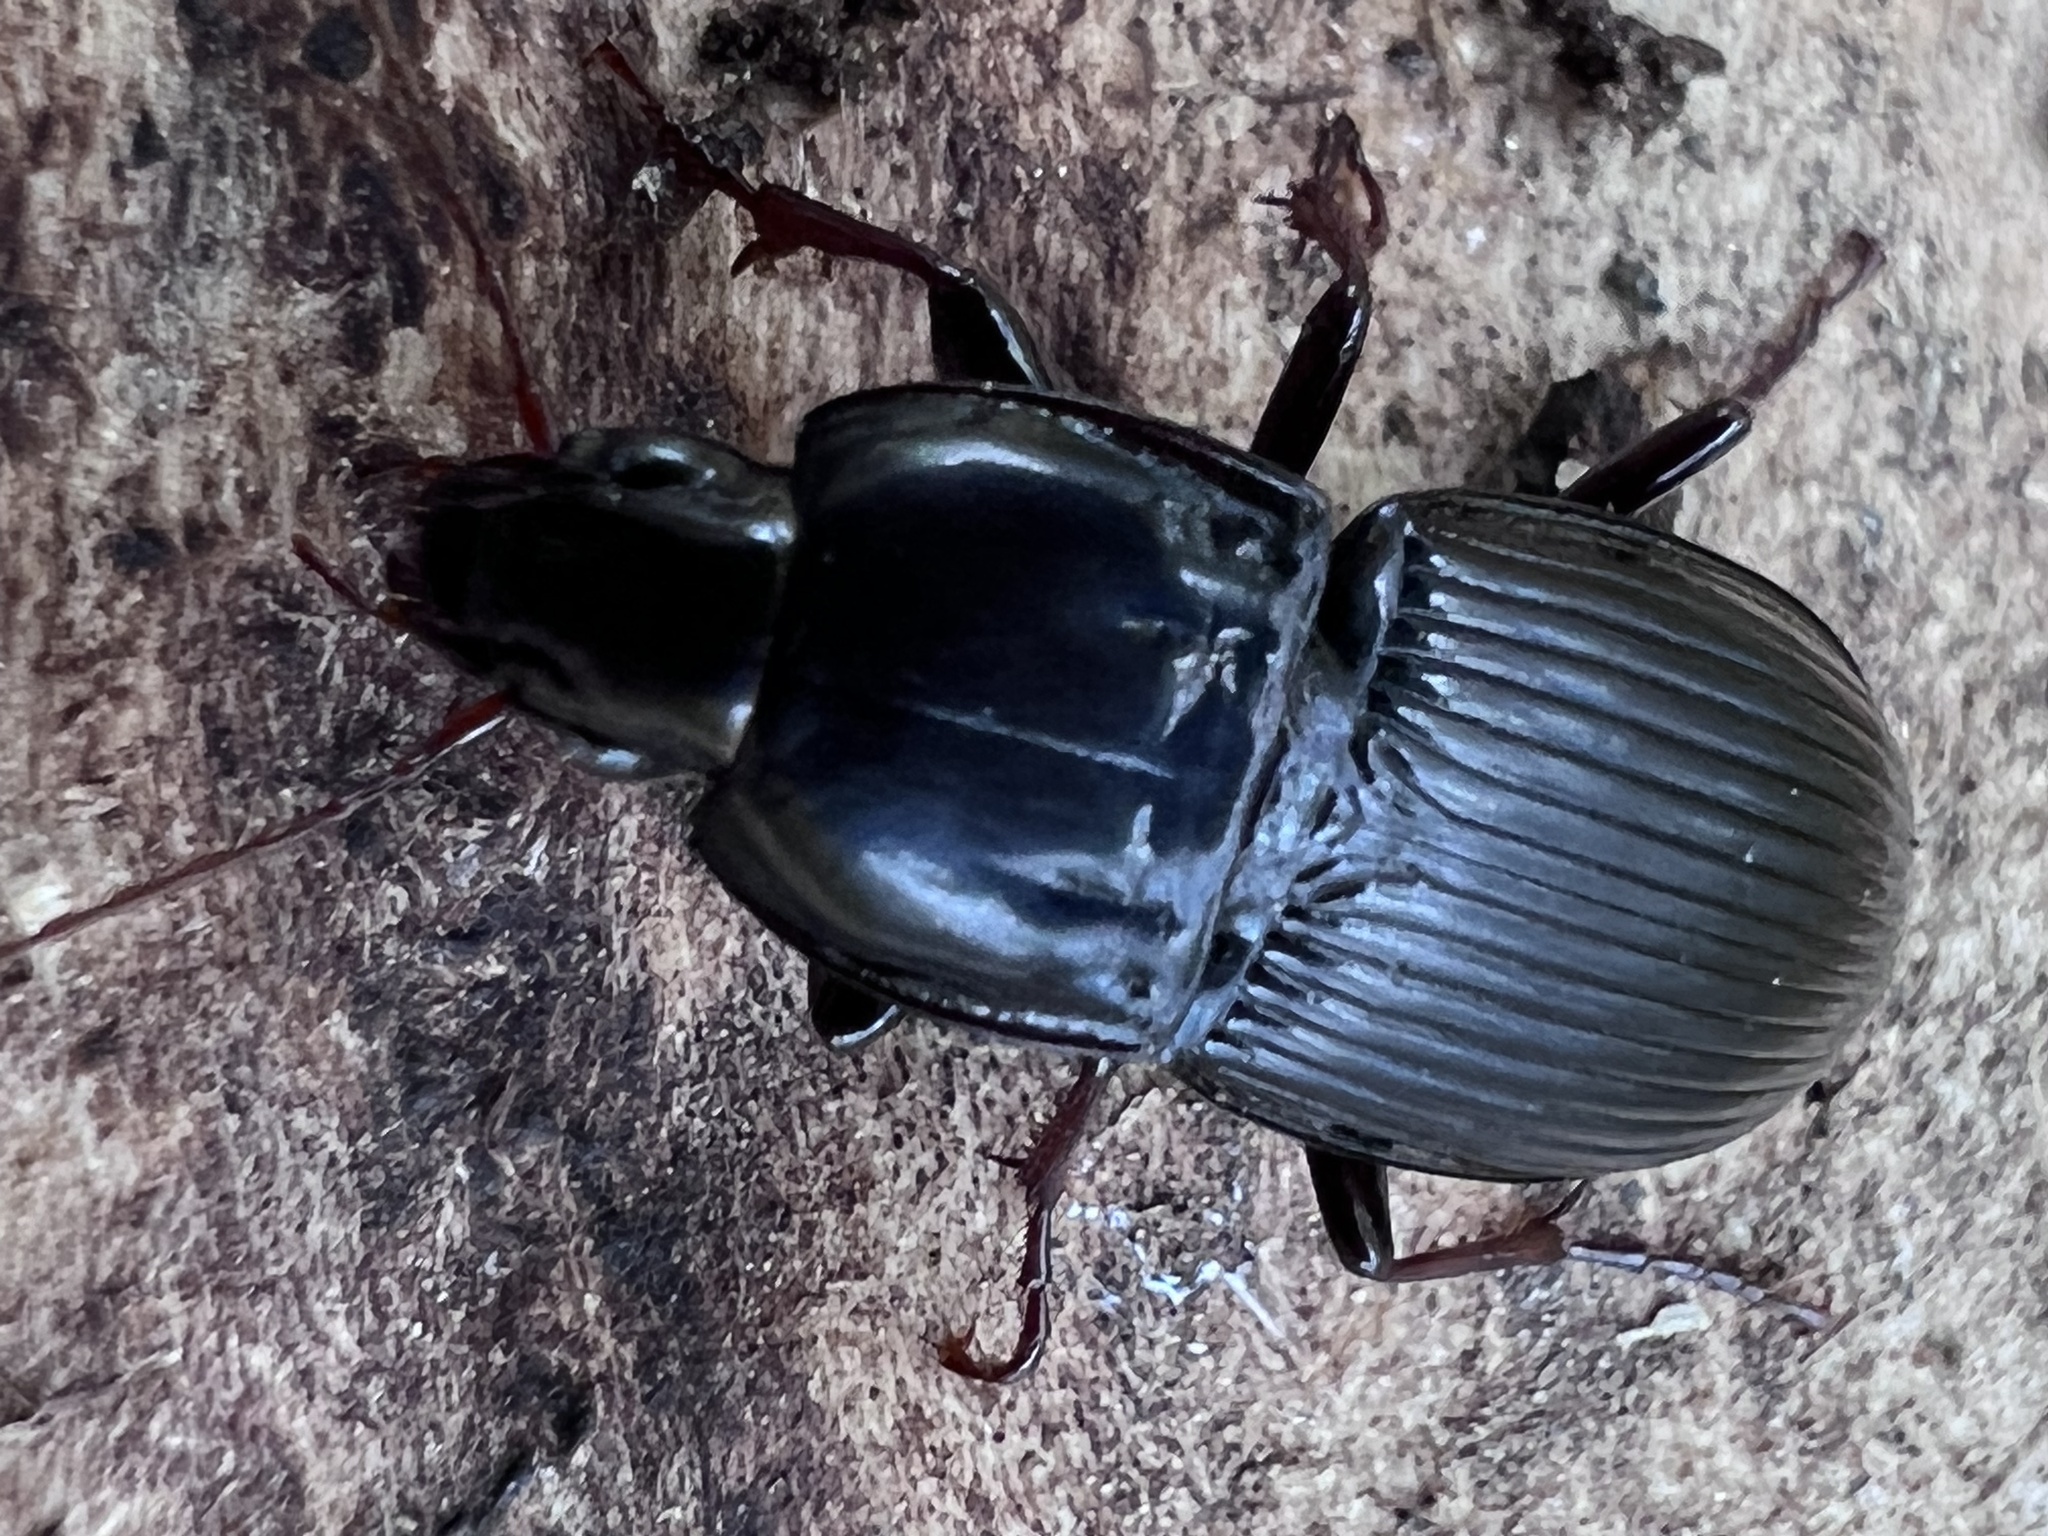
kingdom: Animalia
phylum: Arthropoda
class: Insecta
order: Coleoptera
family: Carabidae
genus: Abacidus
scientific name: Abacidus permundus
